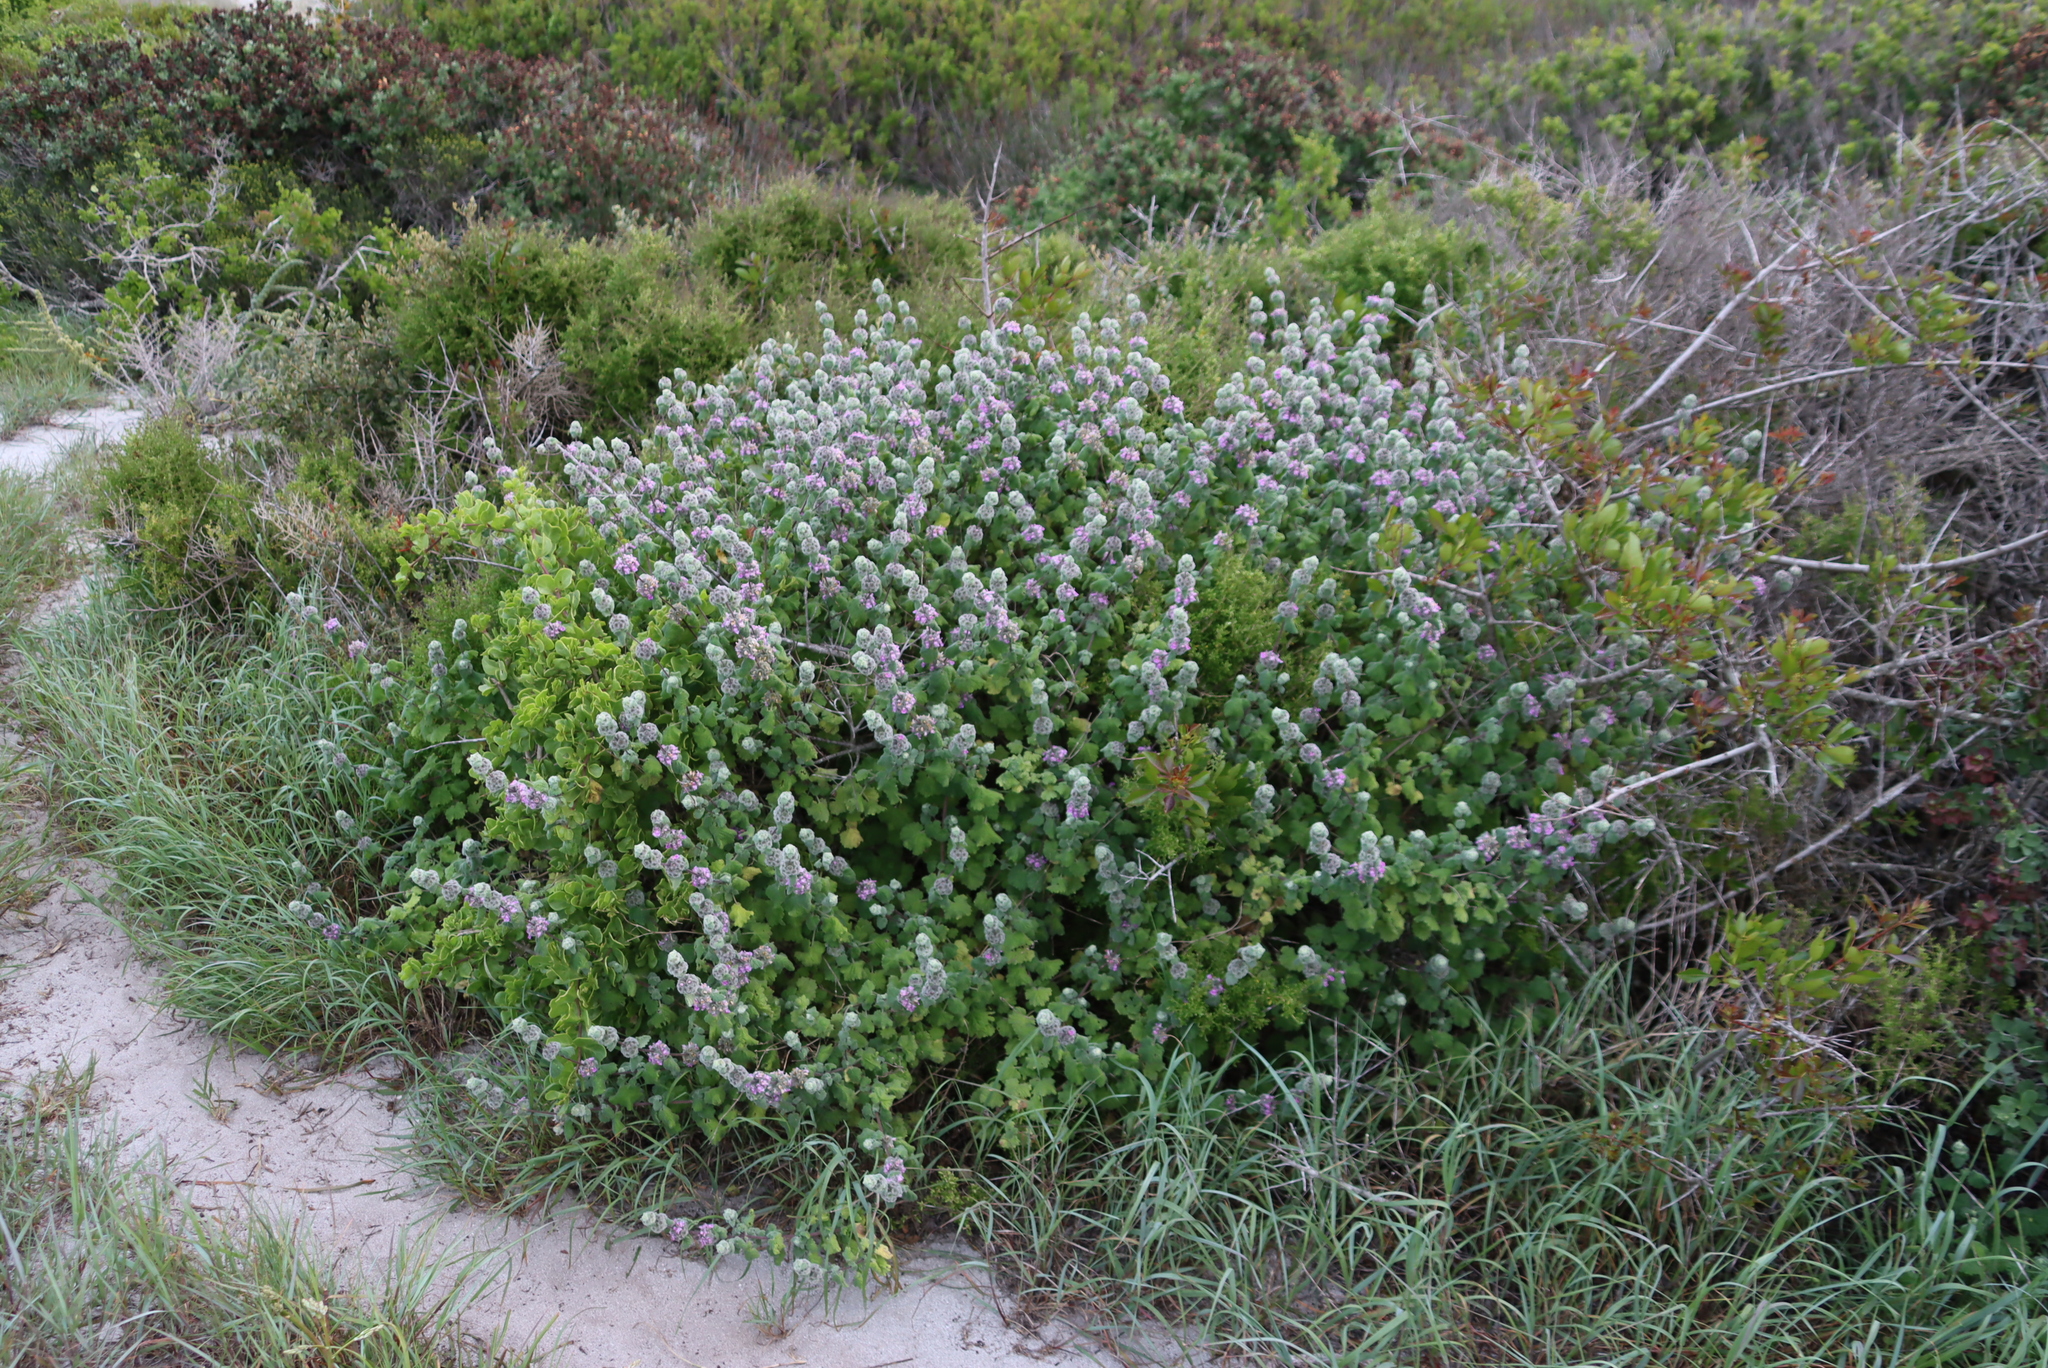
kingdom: Plantae
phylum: Tracheophyta
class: Magnoliopsida
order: Lamiales
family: Lamiaceae
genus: Pseudodictamnus
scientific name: Pseudodictamnus africanus
